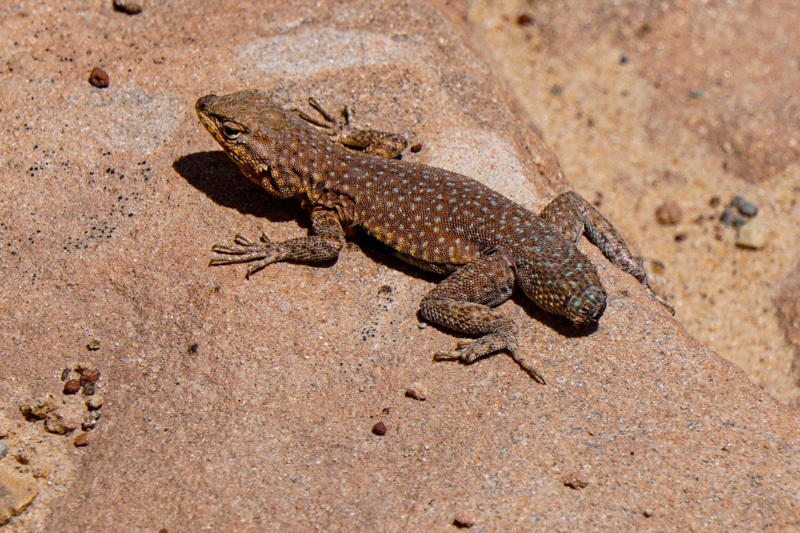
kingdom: Animalia
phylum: Chordata
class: Squamata
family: Phrynosomatidae
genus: Uta
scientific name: Uta stansburiana
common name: Side-blotched lizard
